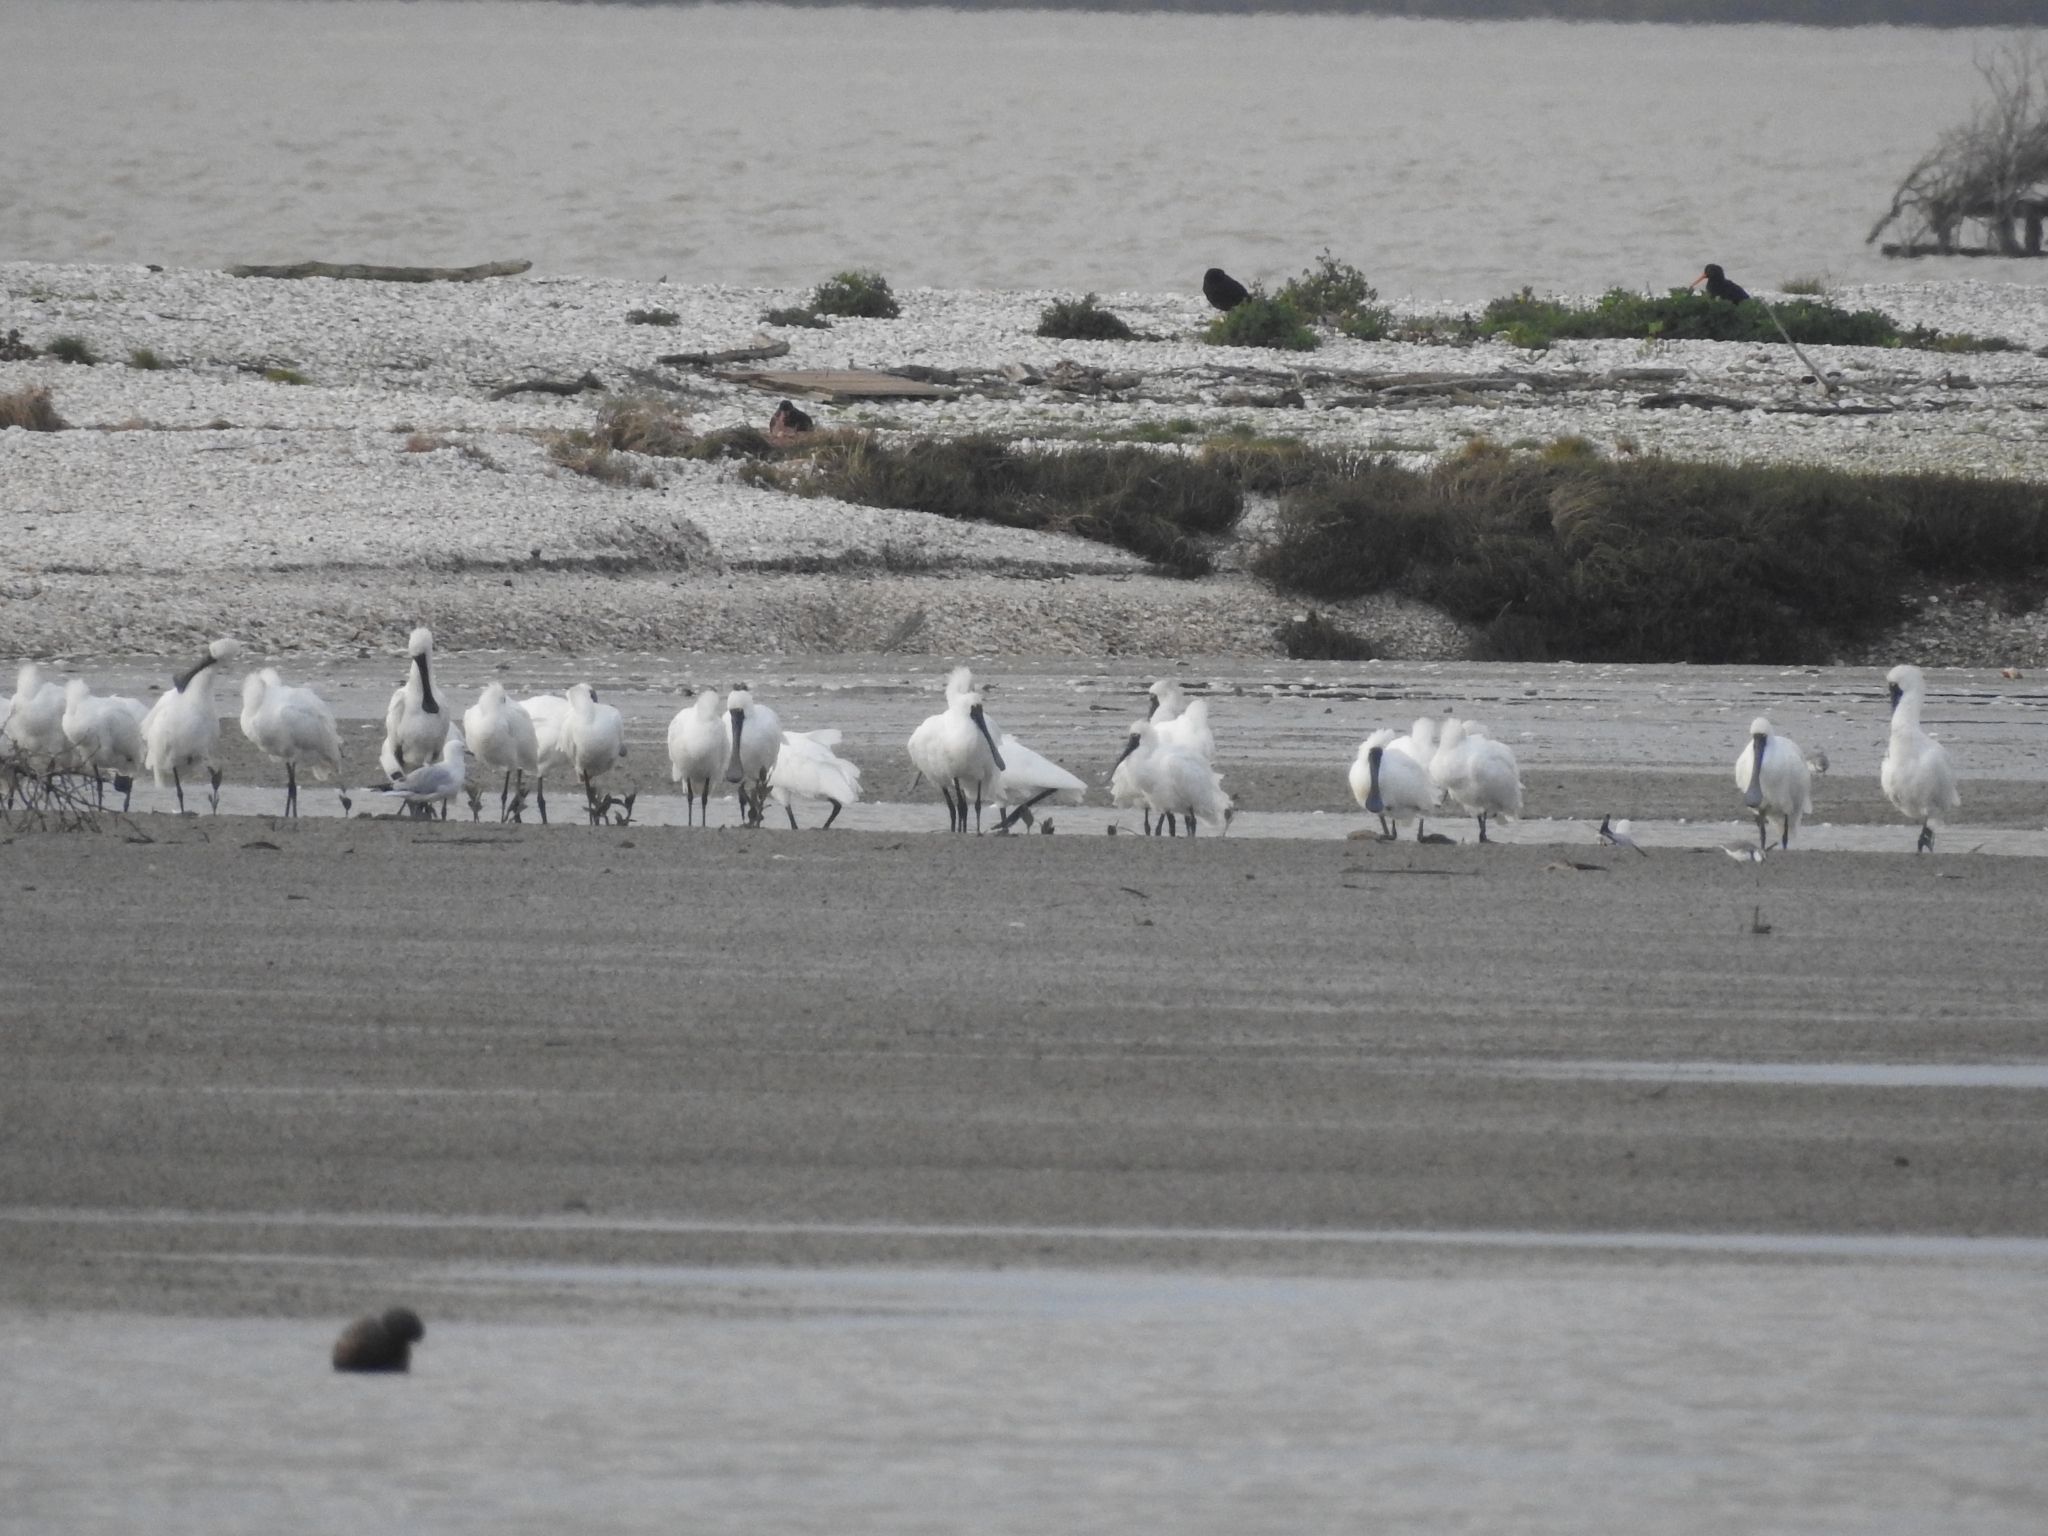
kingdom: Animalia
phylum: Chordata
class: Aves
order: Pelecaniformes
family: Threskiornithidae
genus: Platalea
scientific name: Platalea regia
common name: Royal spoonbill
